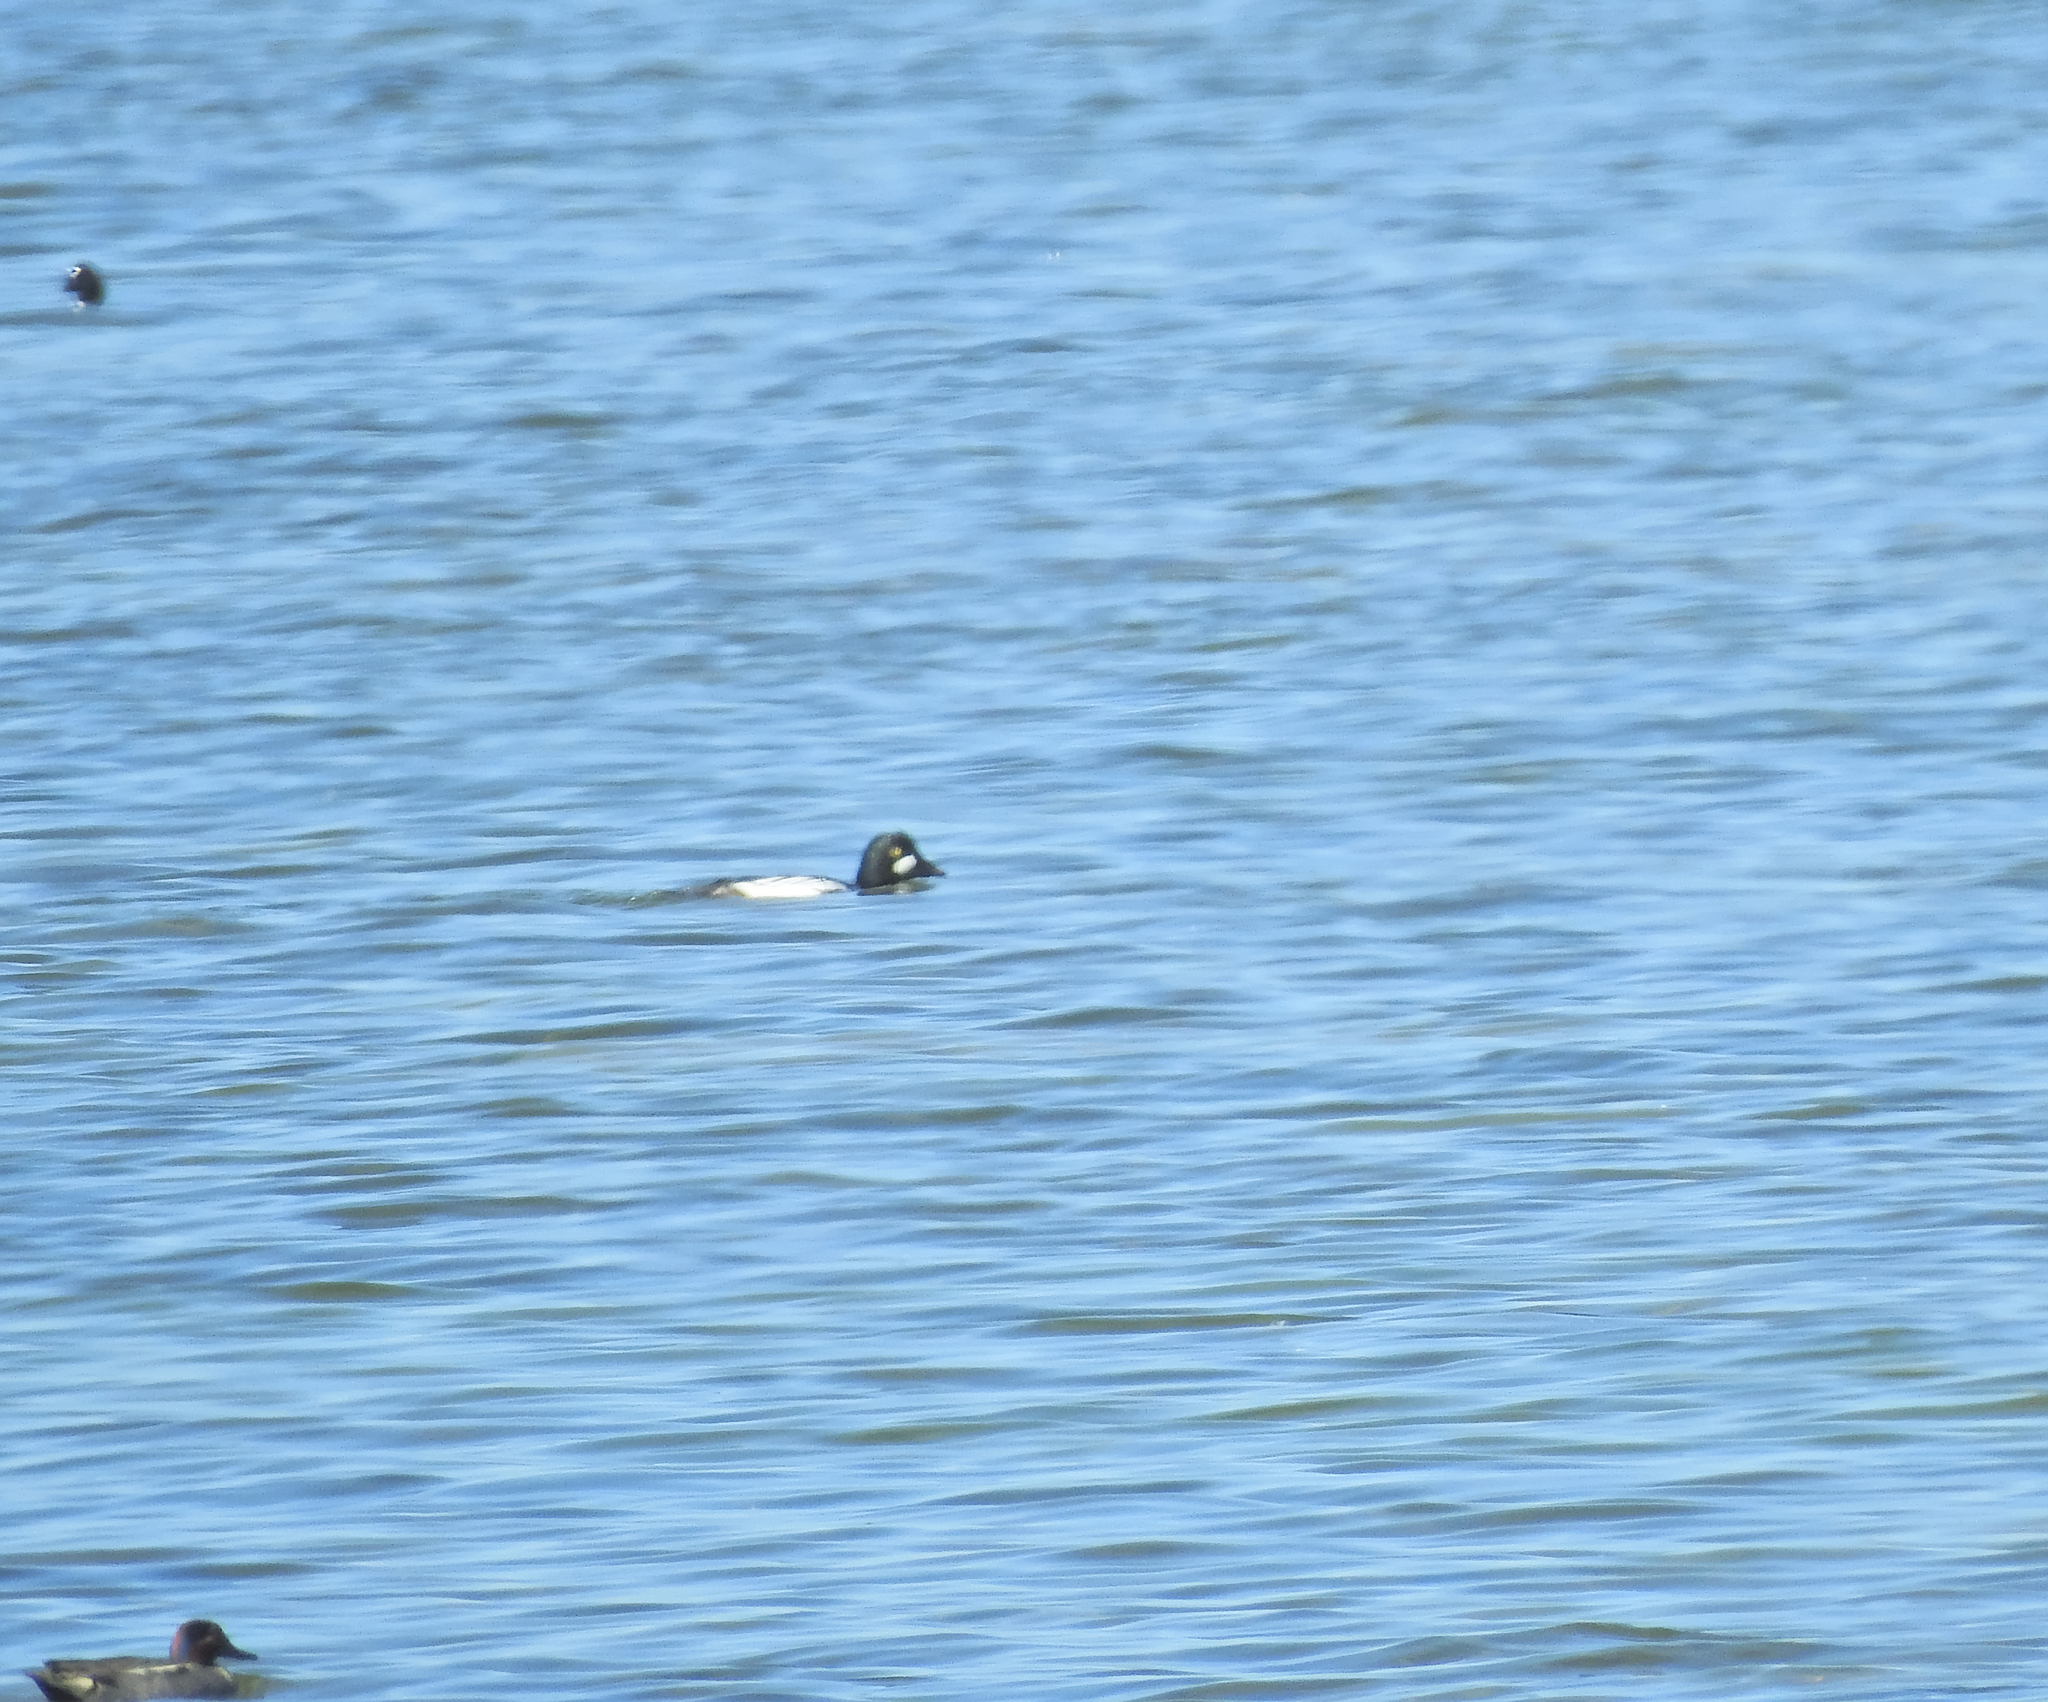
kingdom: Animalia
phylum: Chordata
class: Aves
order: Anseriformes
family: Anatidae
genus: Bucephala
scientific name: Bucephala clangula
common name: Common goldeneye
